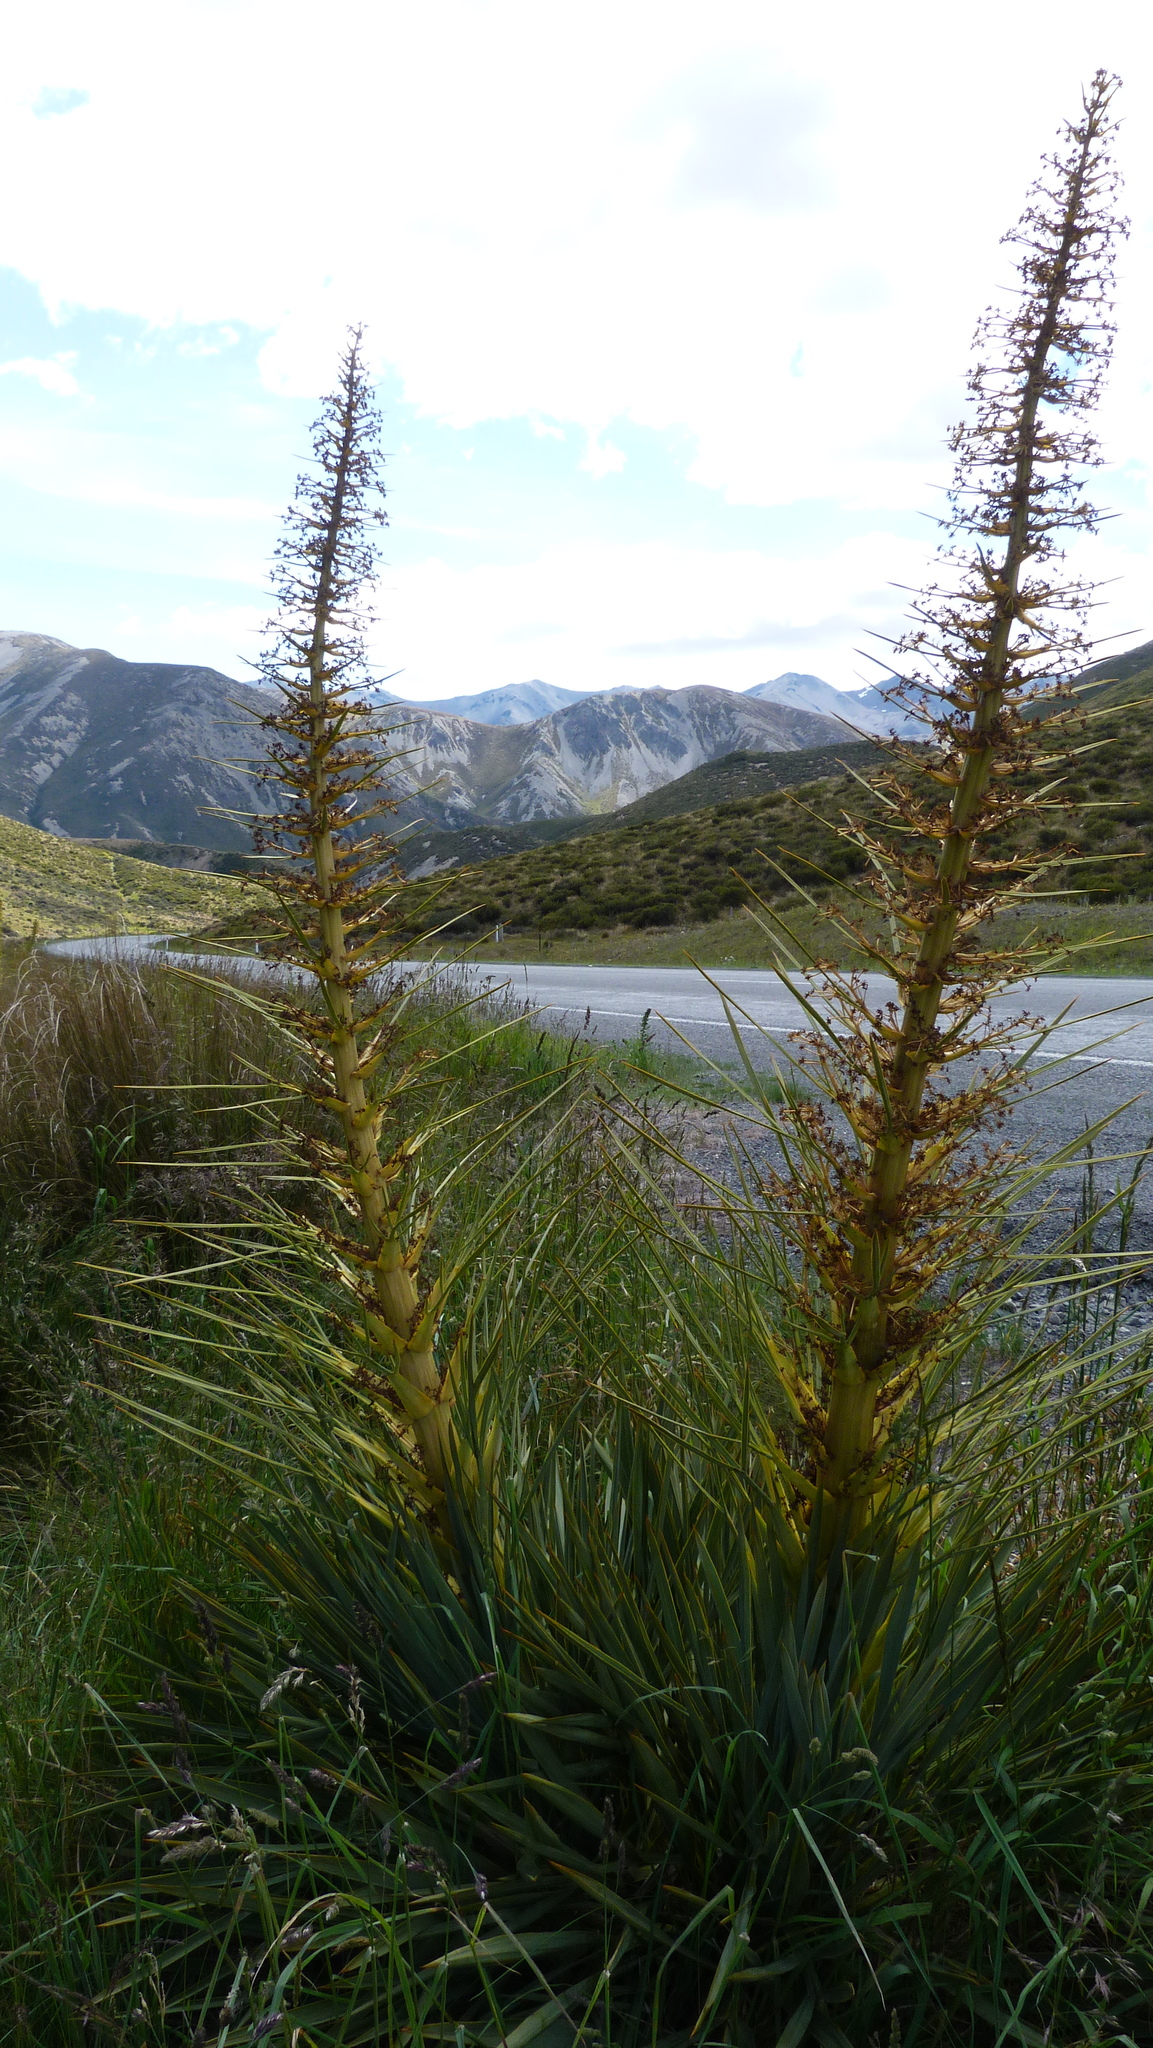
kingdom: Plantae
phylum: Tracheophyta
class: Magnoliopsida
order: Apiales
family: Apiaceae
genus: Aciphylla
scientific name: Aciphylla scott-thomsonii
